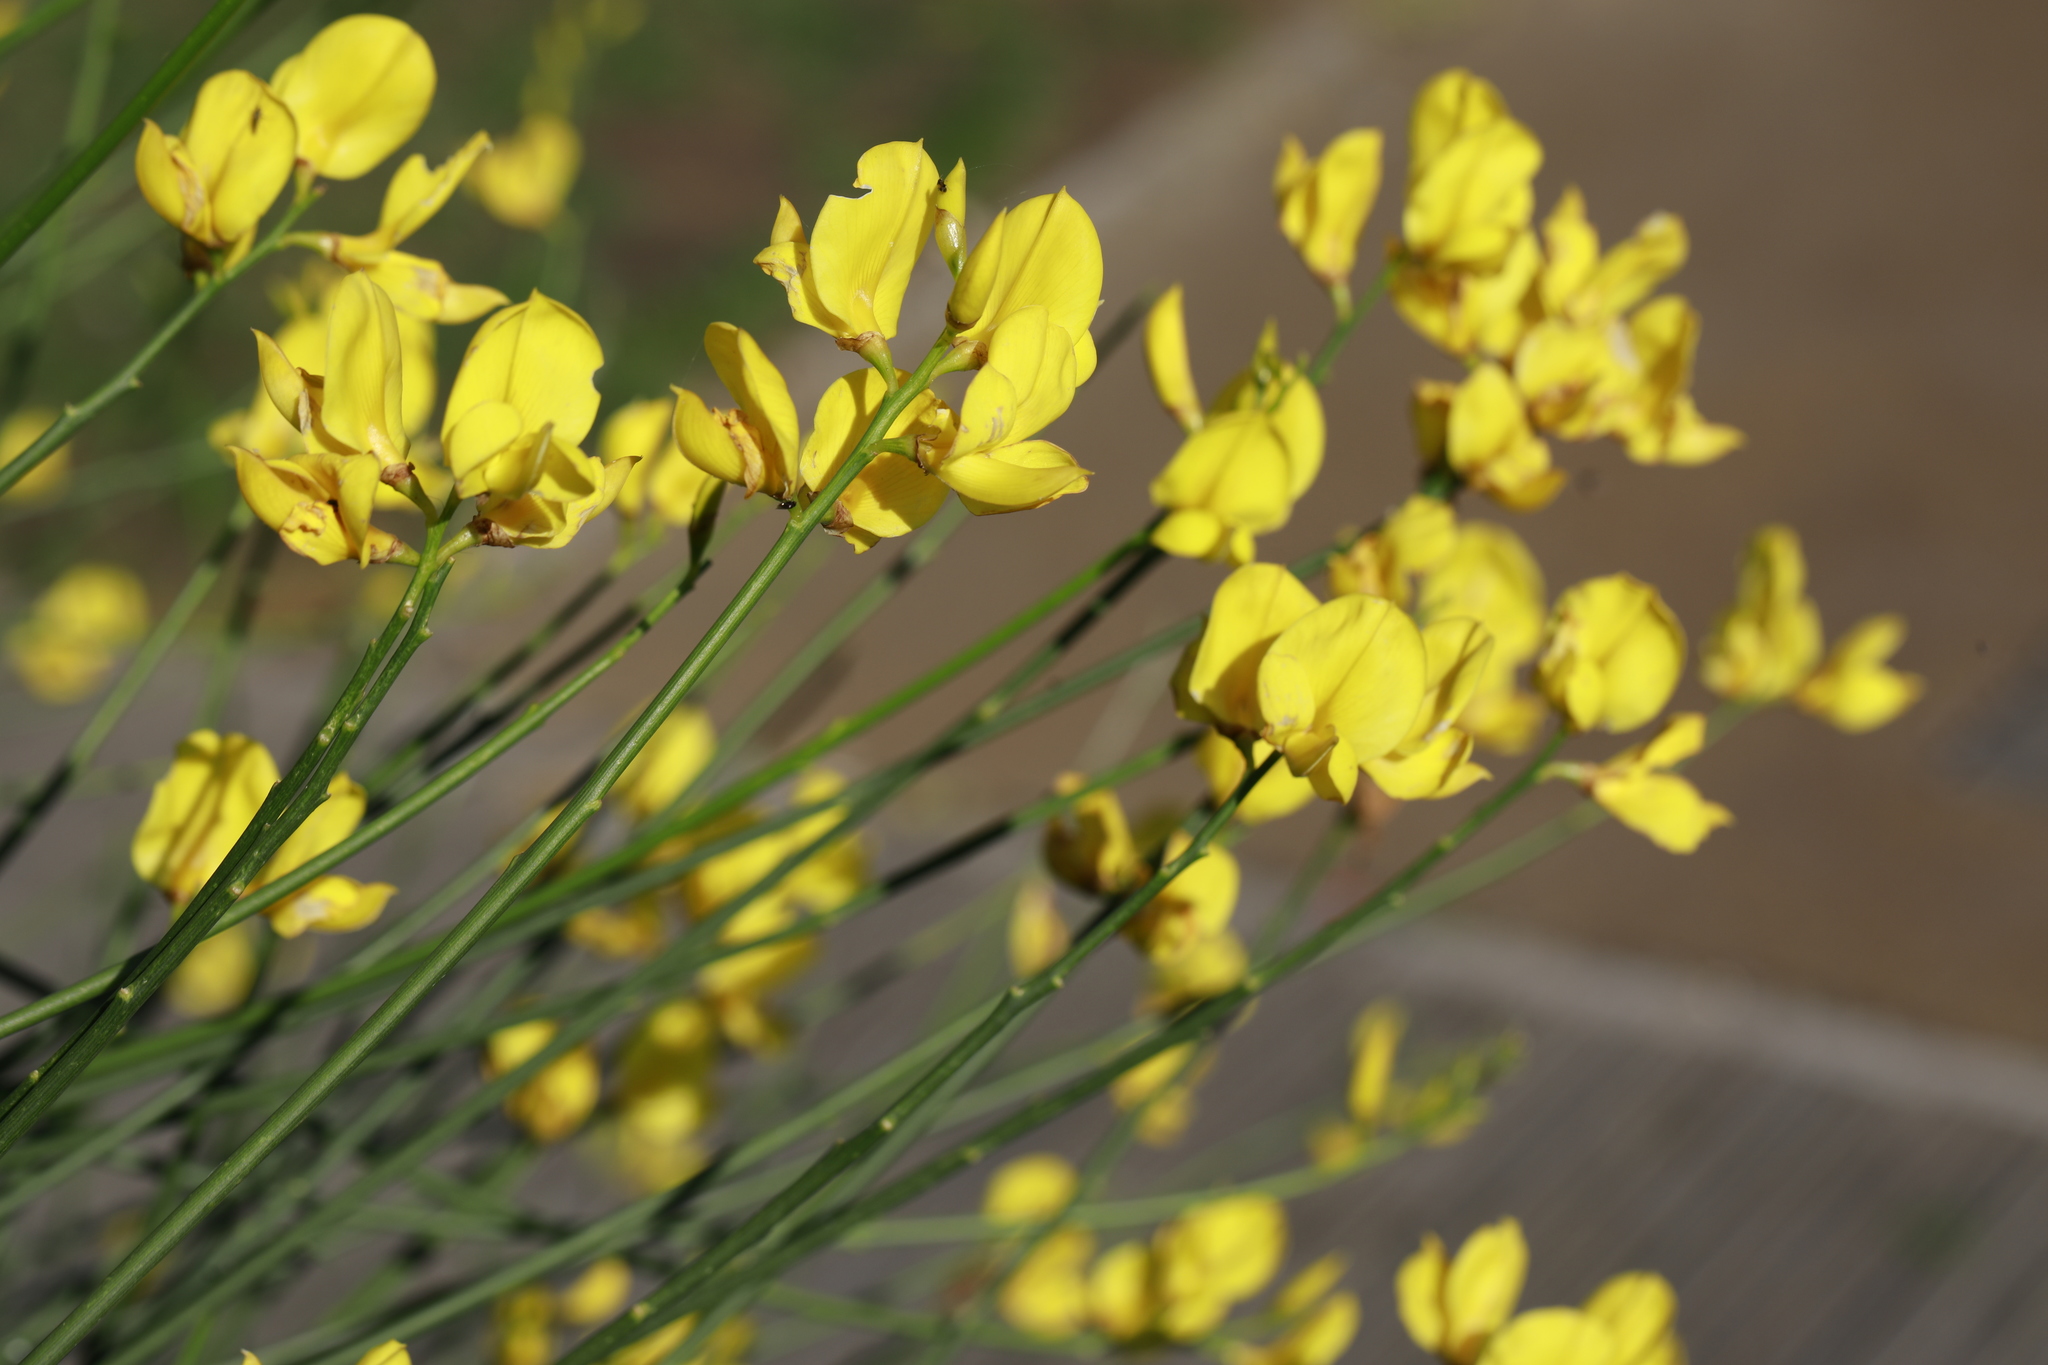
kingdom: Plantae
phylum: Tracheophyta
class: Magnoliopsida
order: Fabales
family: Fabaceae
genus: Spartium
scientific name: Spartium junceum
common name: Spanish broom
